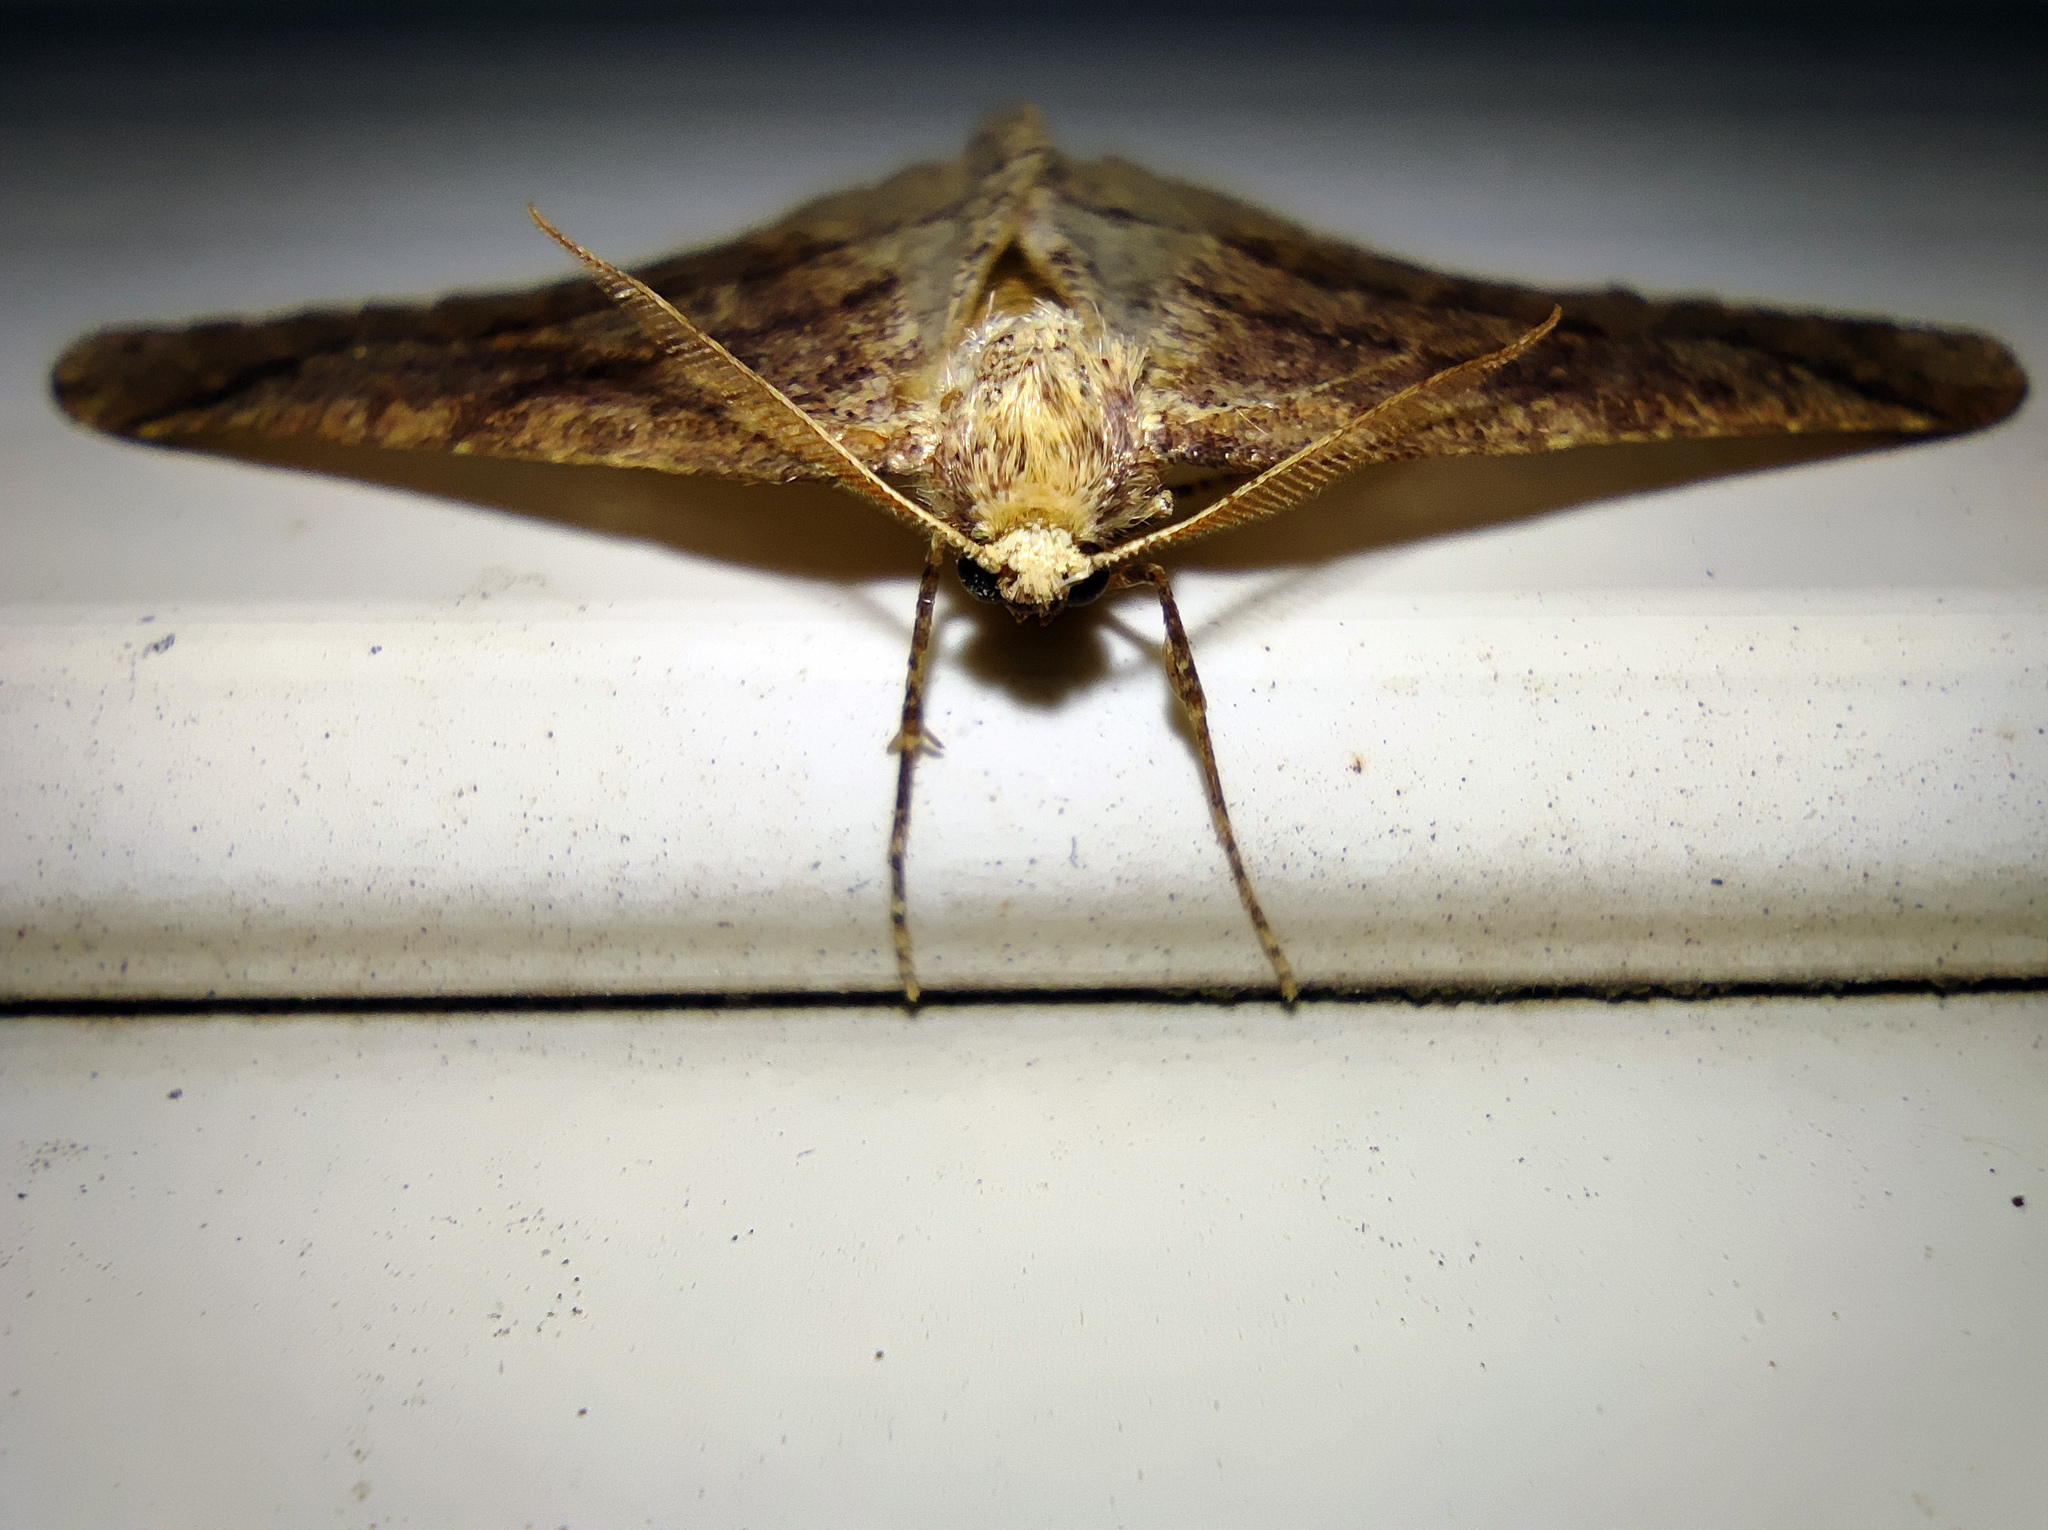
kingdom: Animalia
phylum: Arthropoda
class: Insecta
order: Lepidoptera
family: Geometridae
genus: Agriopis
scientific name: Agriopis marginaria
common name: Dotted border
